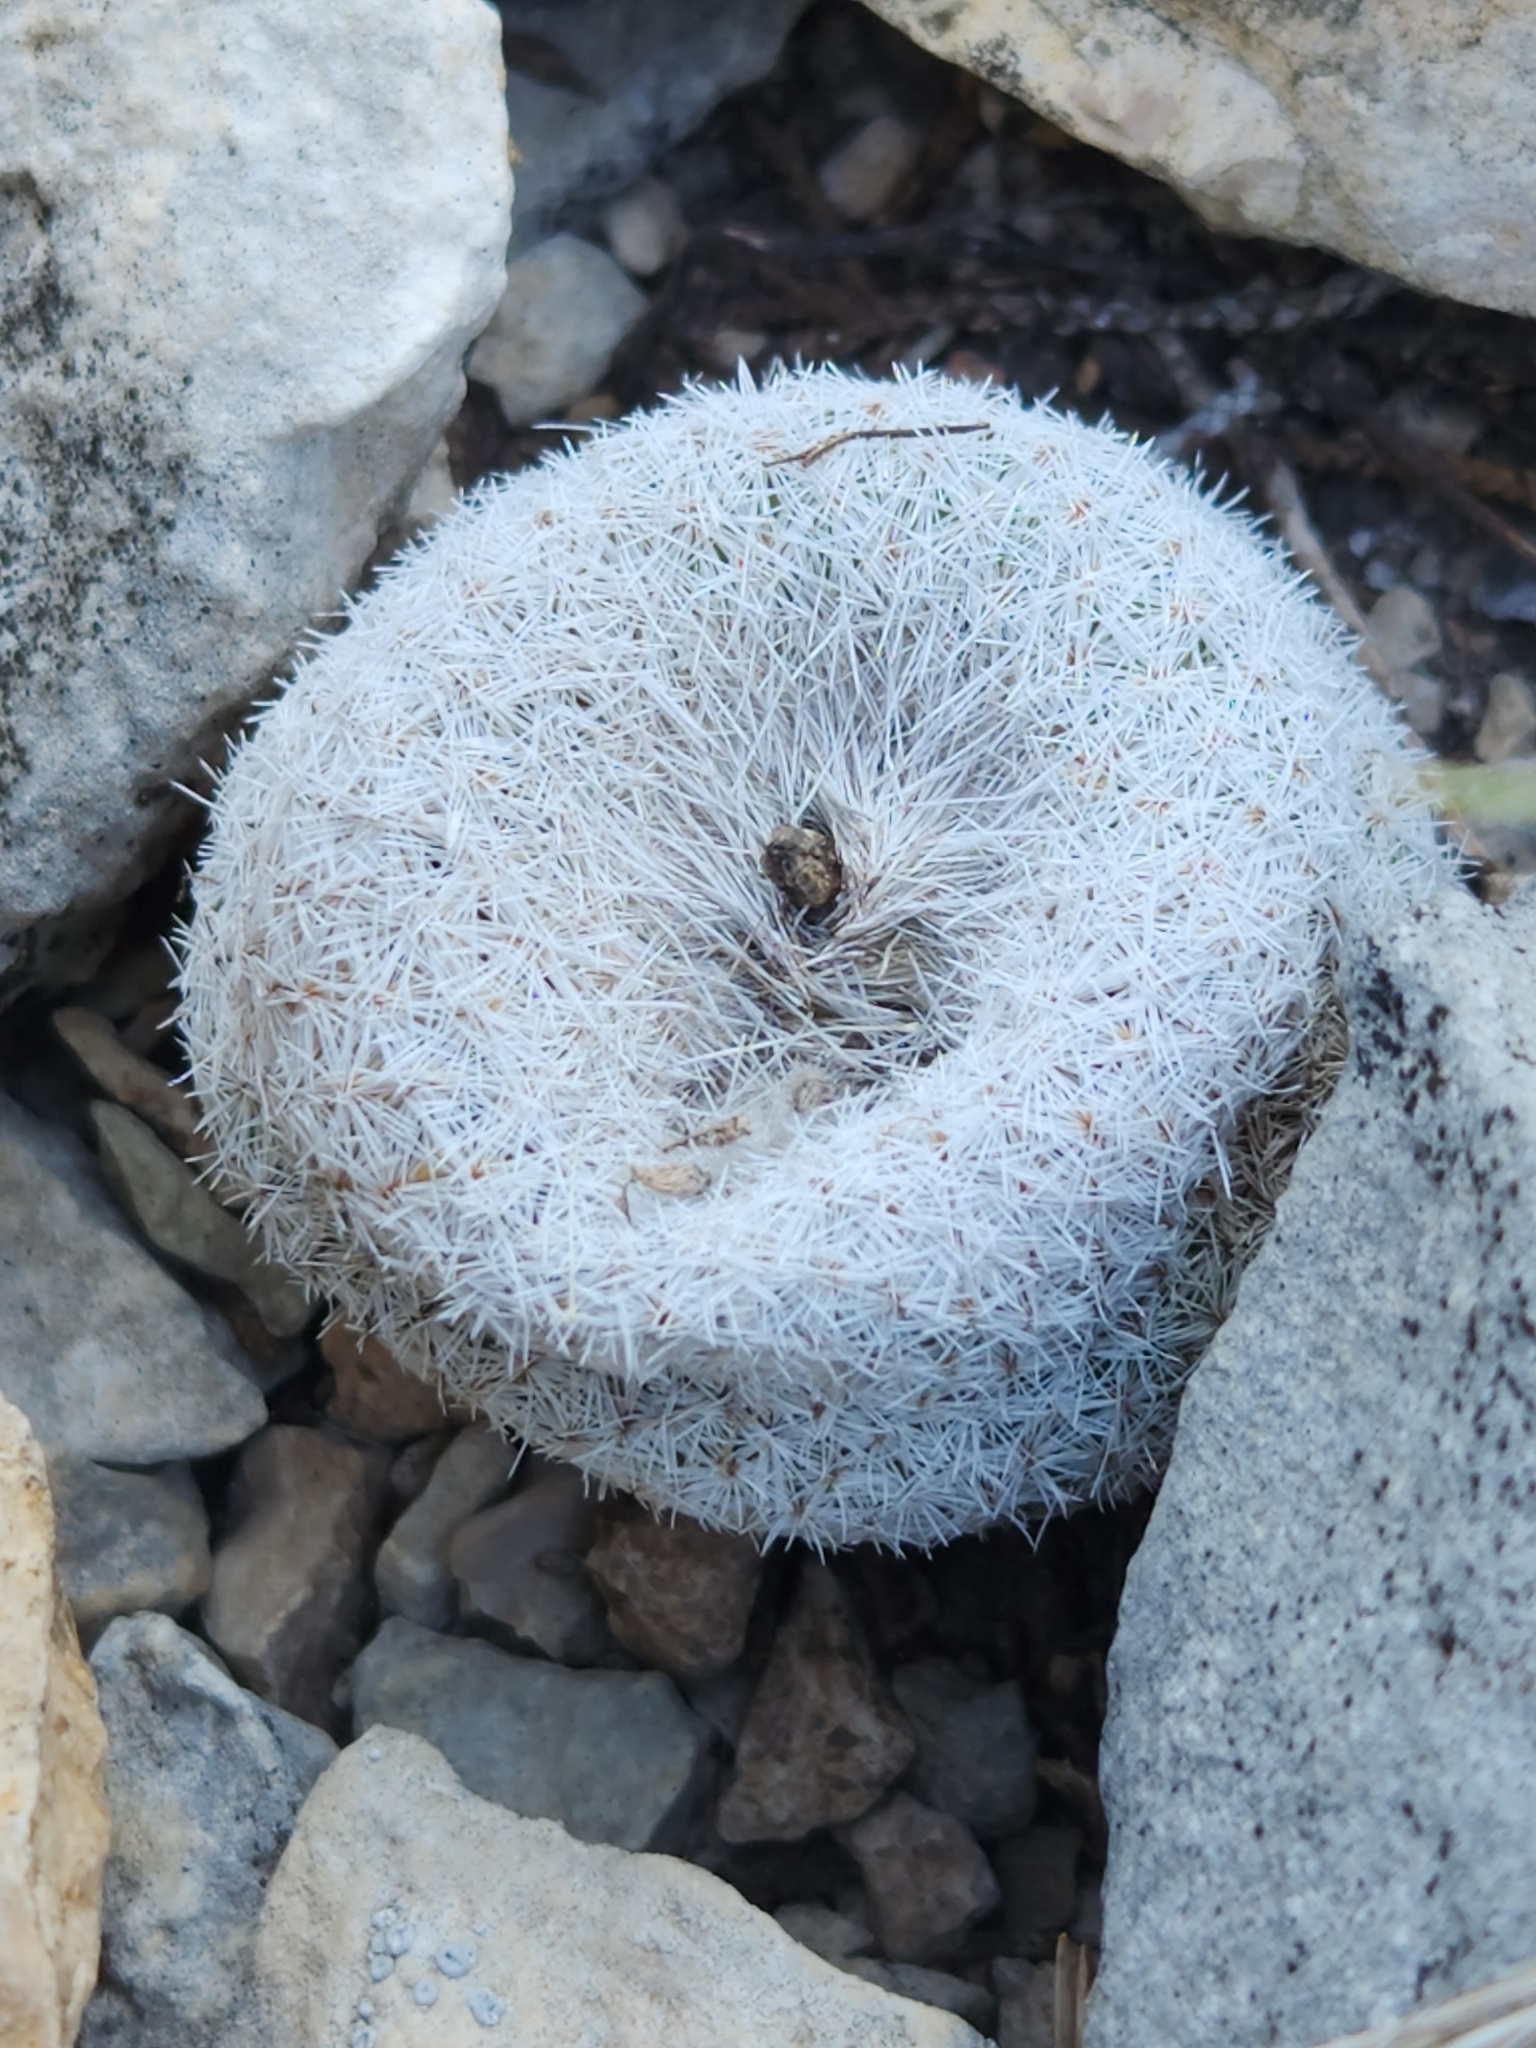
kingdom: Plantae
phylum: Tracheophyta
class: Magnoliopsida
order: Caryophyllales
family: Cactaceae
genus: Epithelantha
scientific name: Epithelantha micromeris
